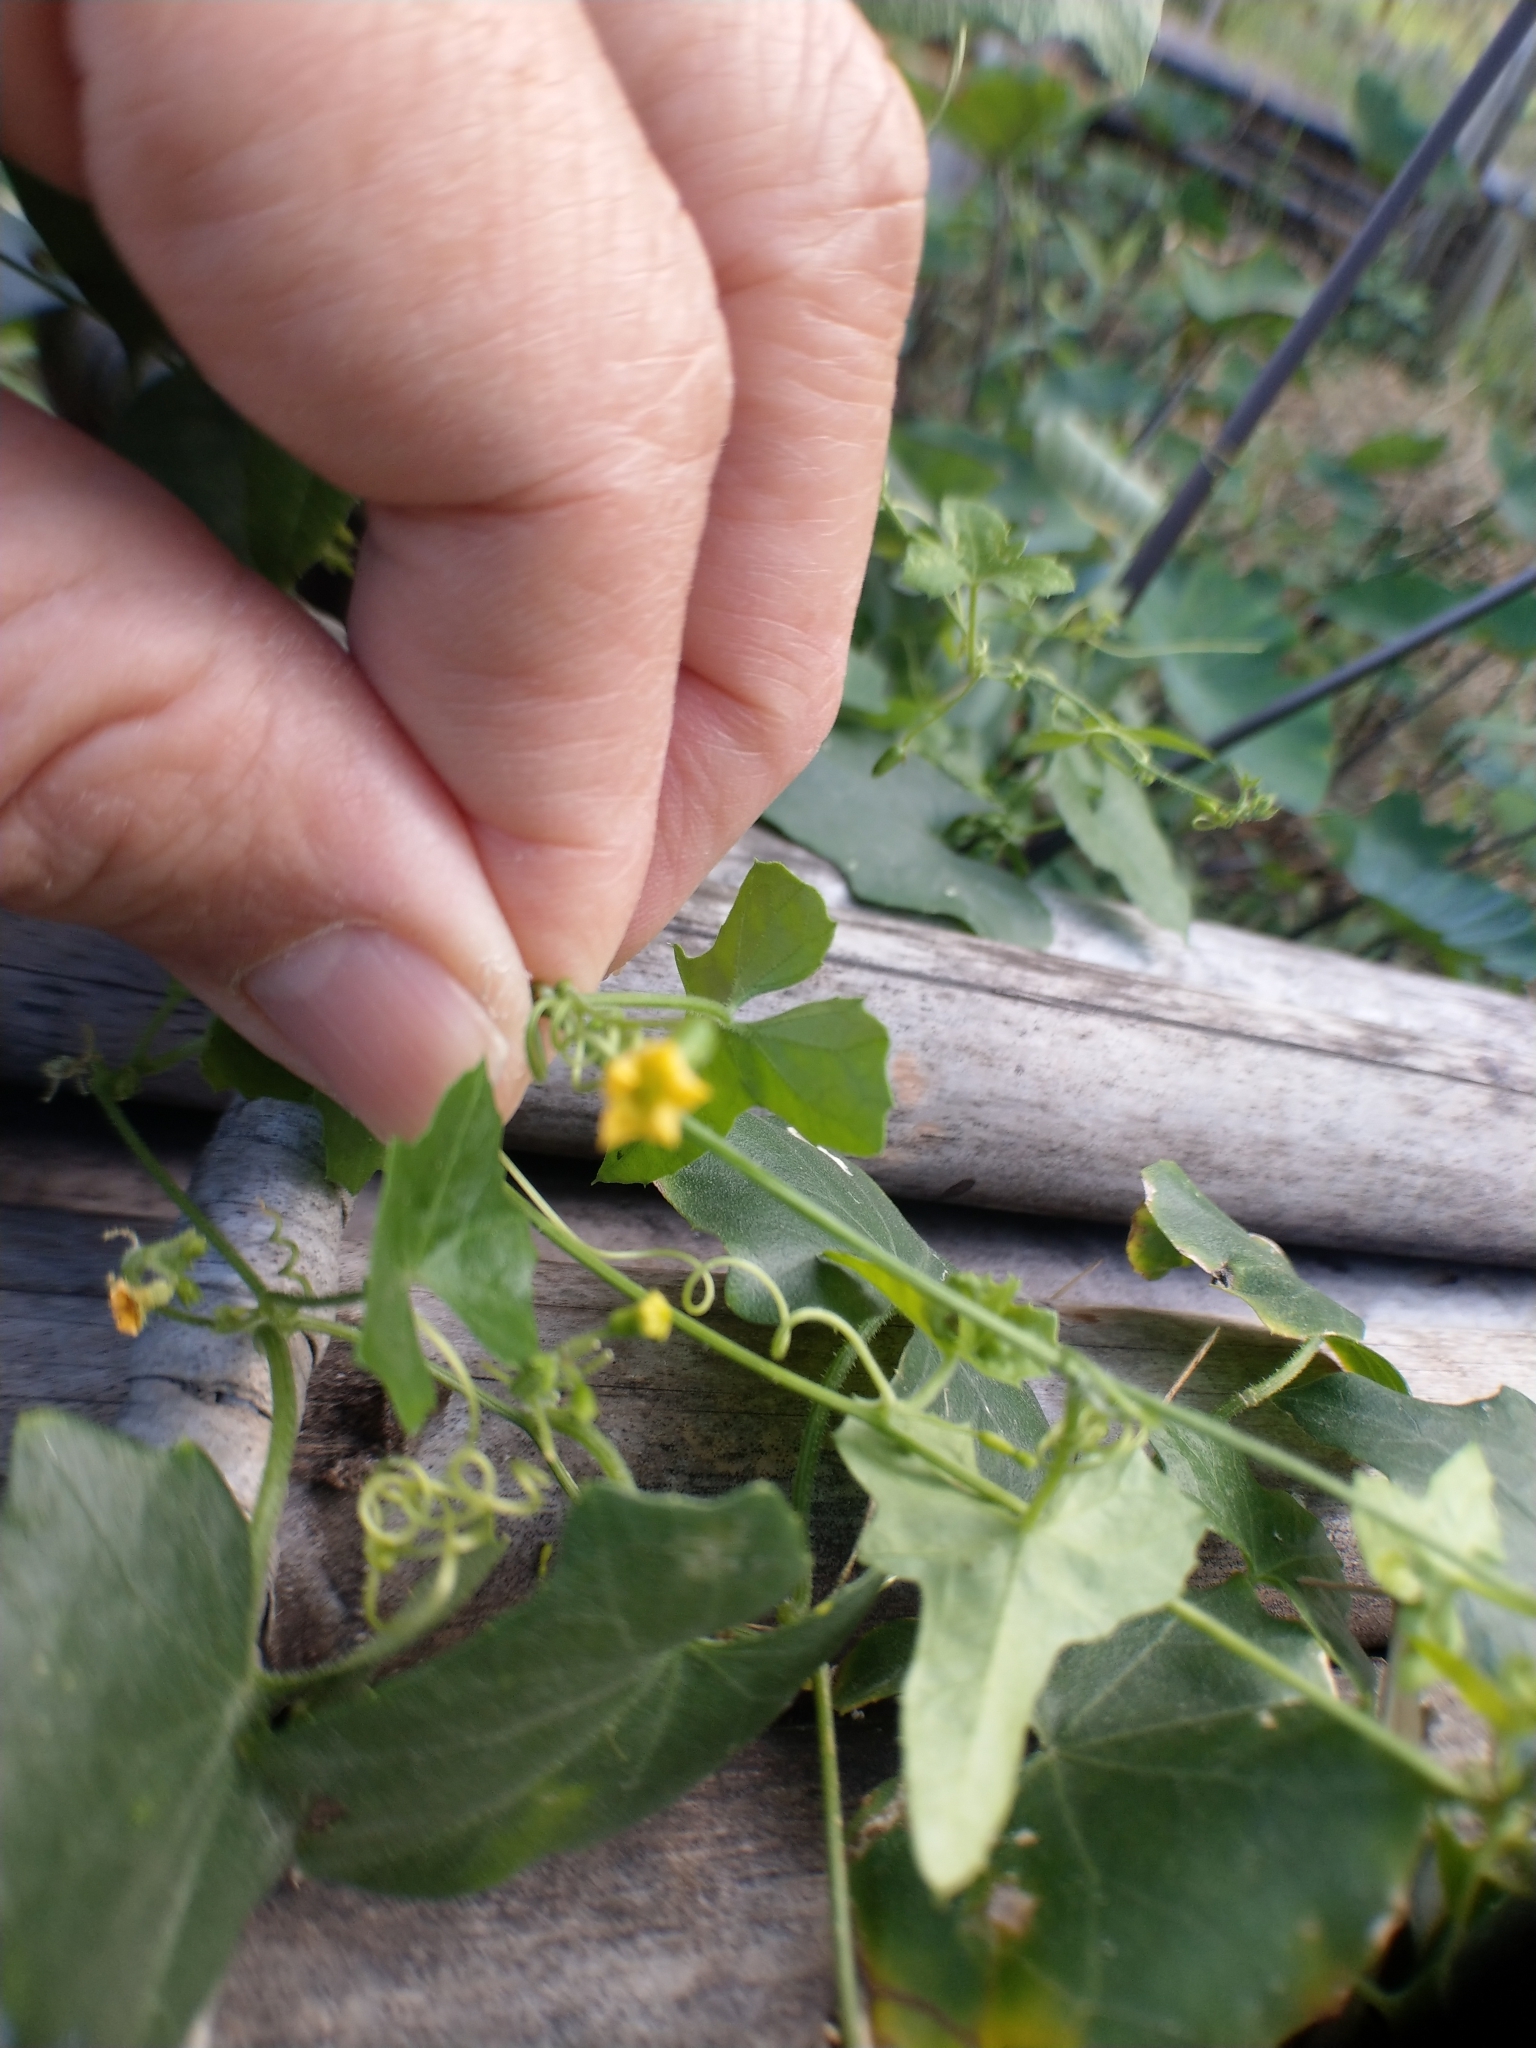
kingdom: Plantae
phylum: Tracheophyta
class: Magnoliopsida
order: Cucurbitales
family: Cucurbitaceae
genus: Melothria
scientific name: Melothria pendula
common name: Creeping-cucumber
